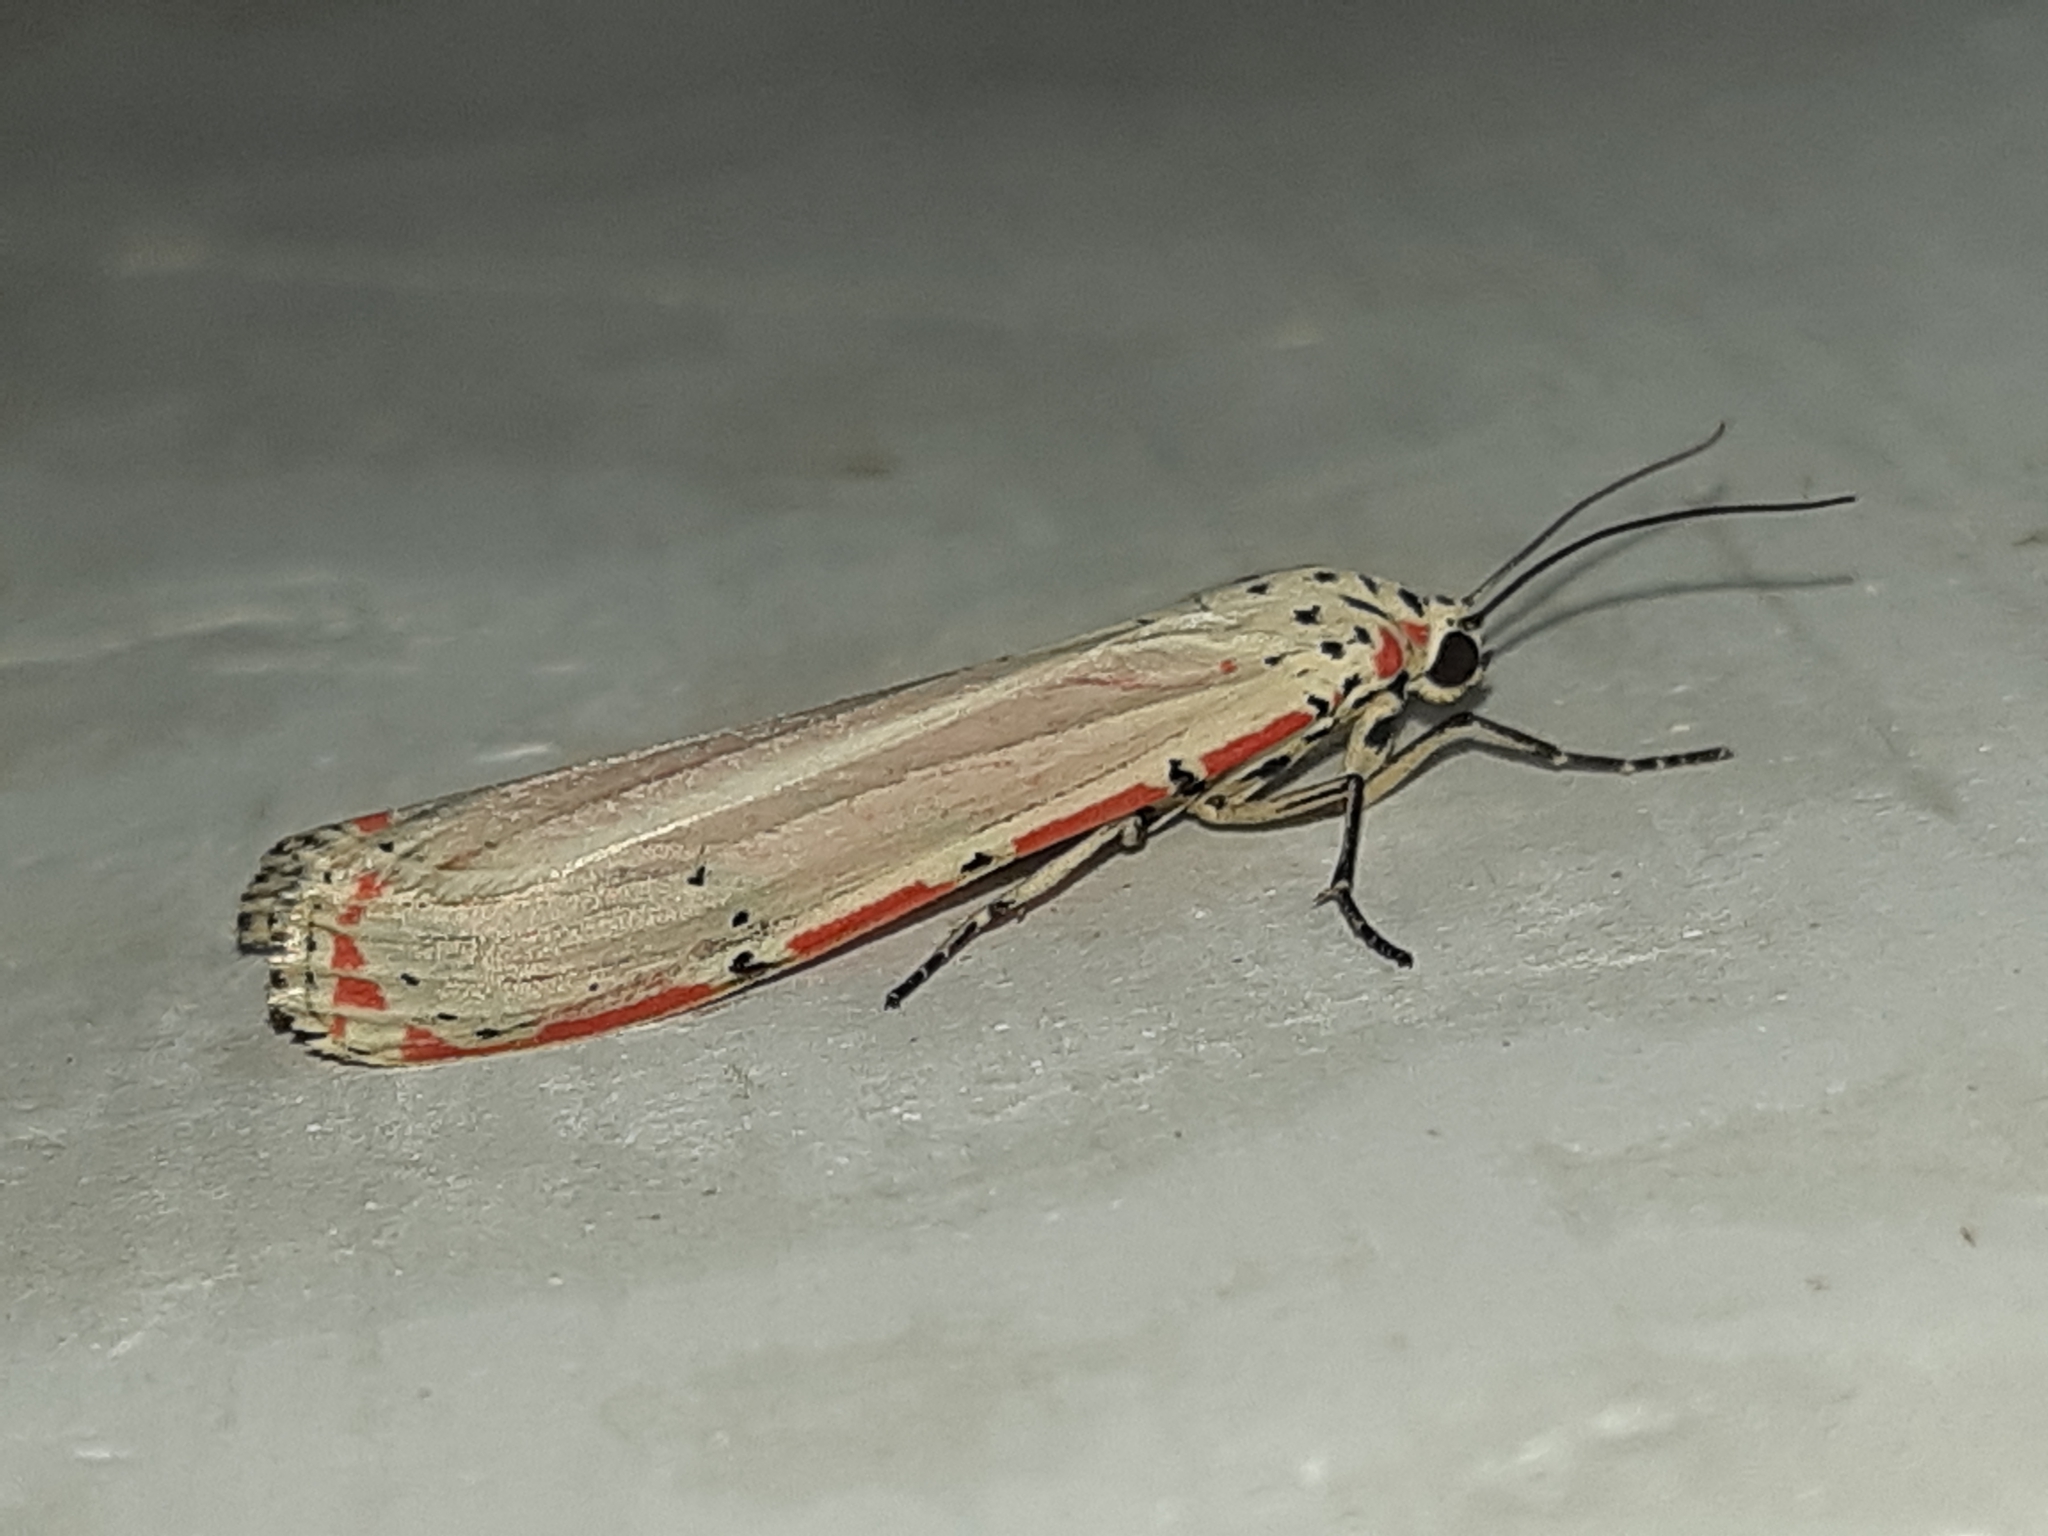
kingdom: Animalia
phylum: Arthropoda
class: Insecta
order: Lepidoptera
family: Erebidae
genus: Utetheisa
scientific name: Utetheisa ornatrix
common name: Beautiful utetheisa
